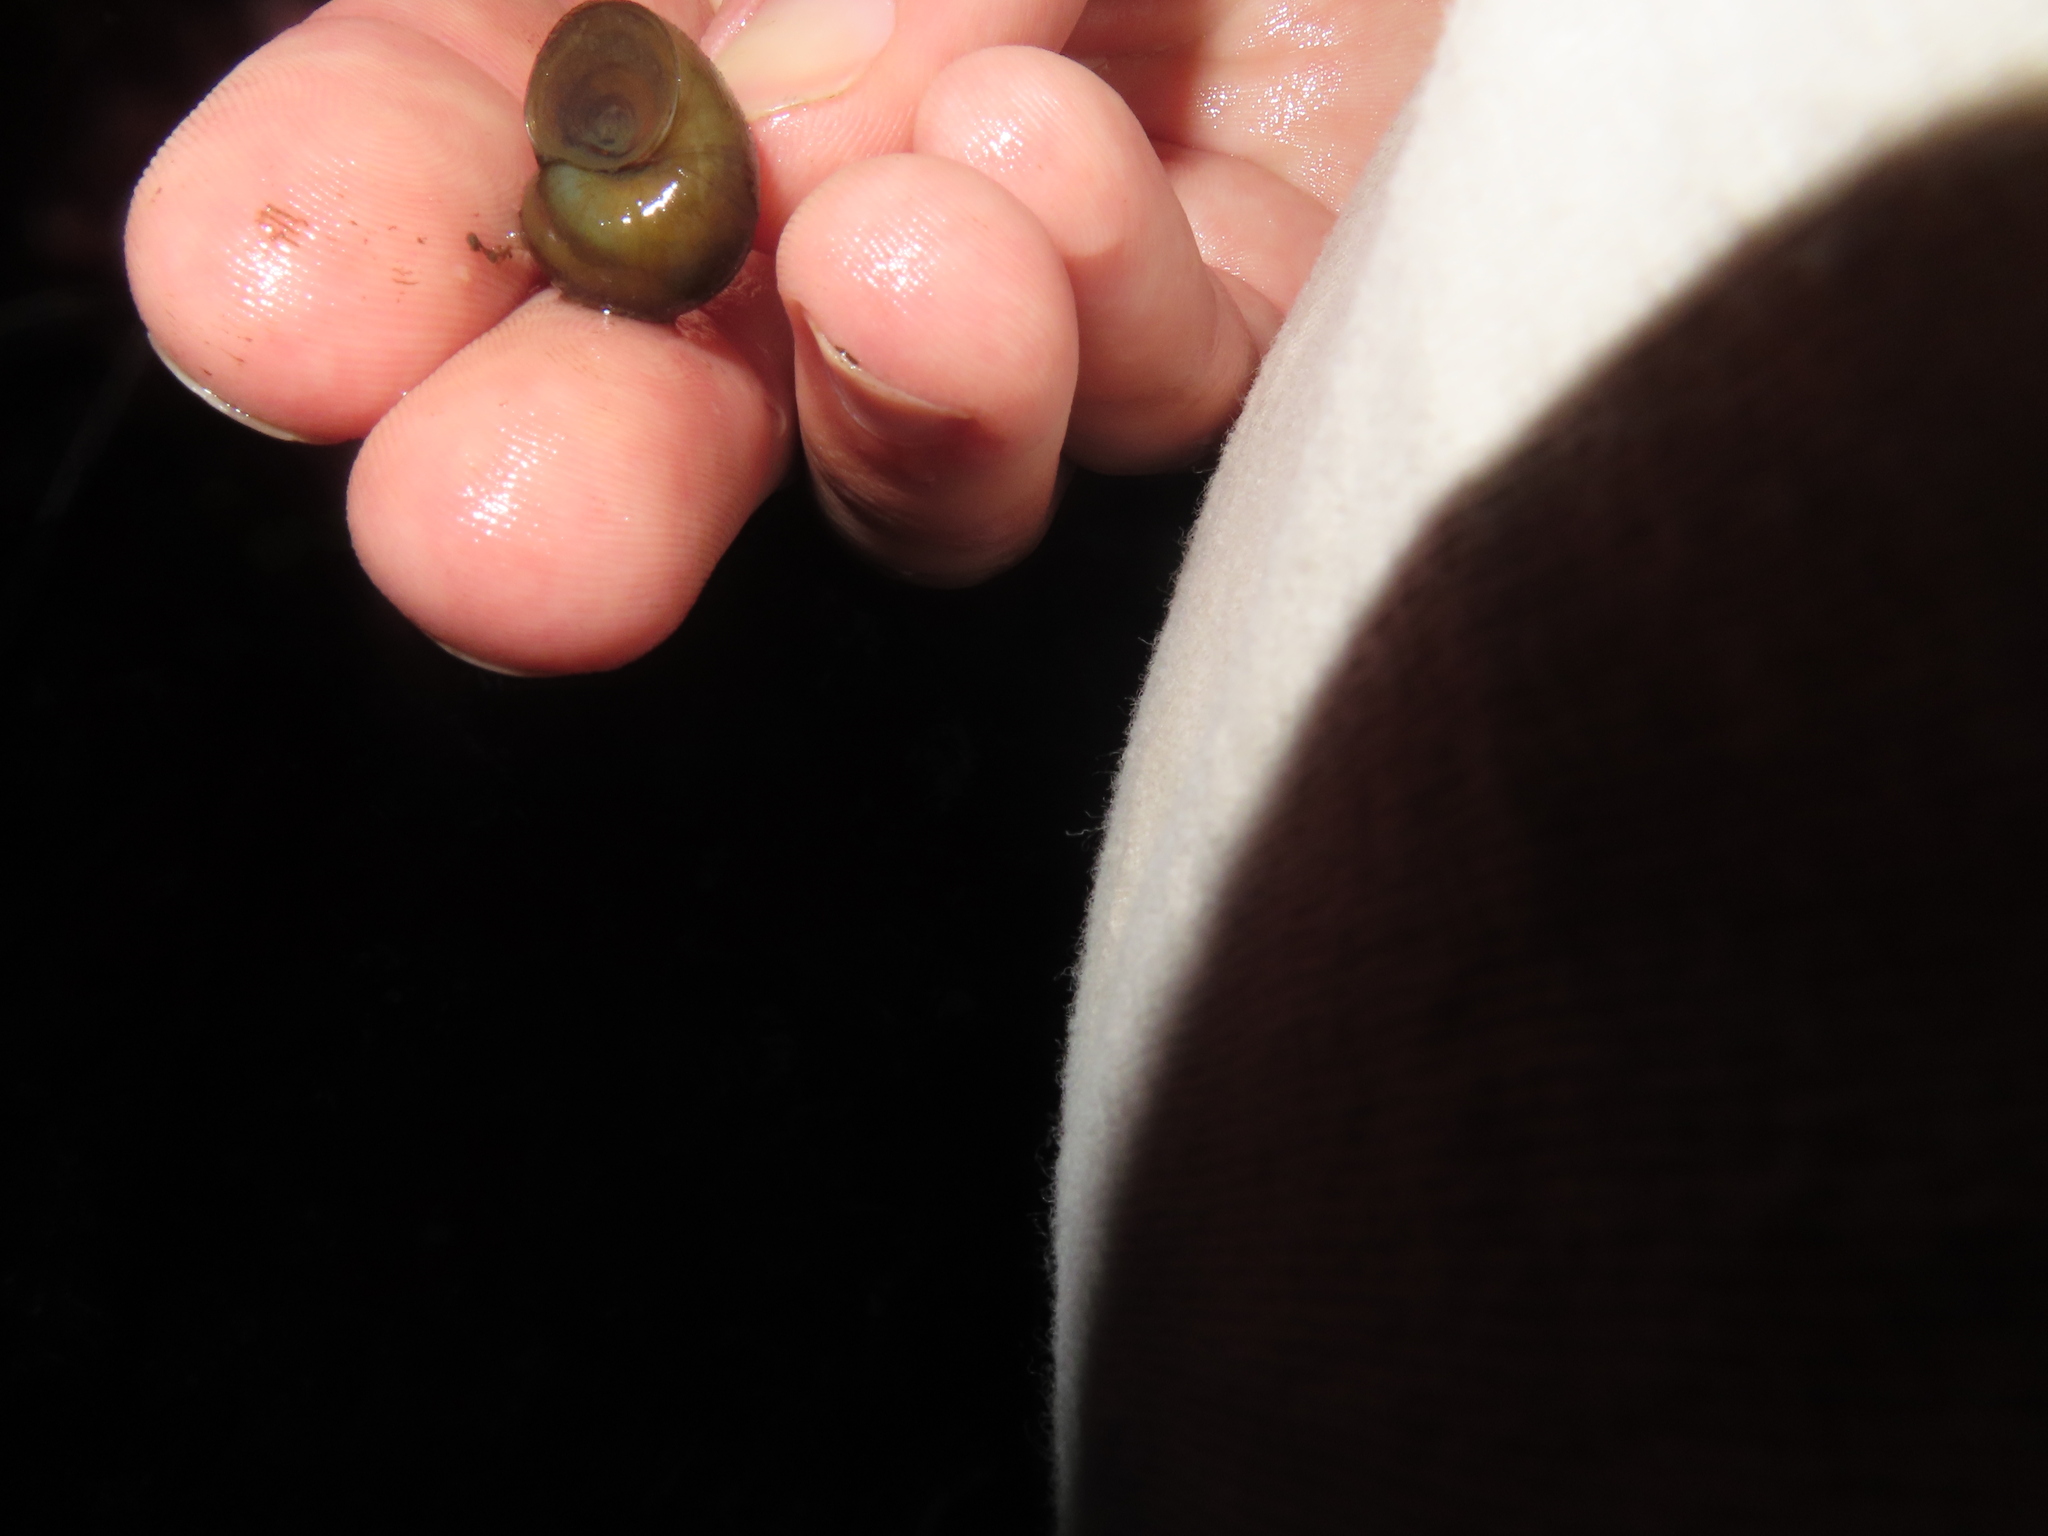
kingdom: Animalia
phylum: Mollusca
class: Gastropoda
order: Architaenioglossa
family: Viviparidae
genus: Callinina
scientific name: Callinina georgiana
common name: Banded mystery snail
